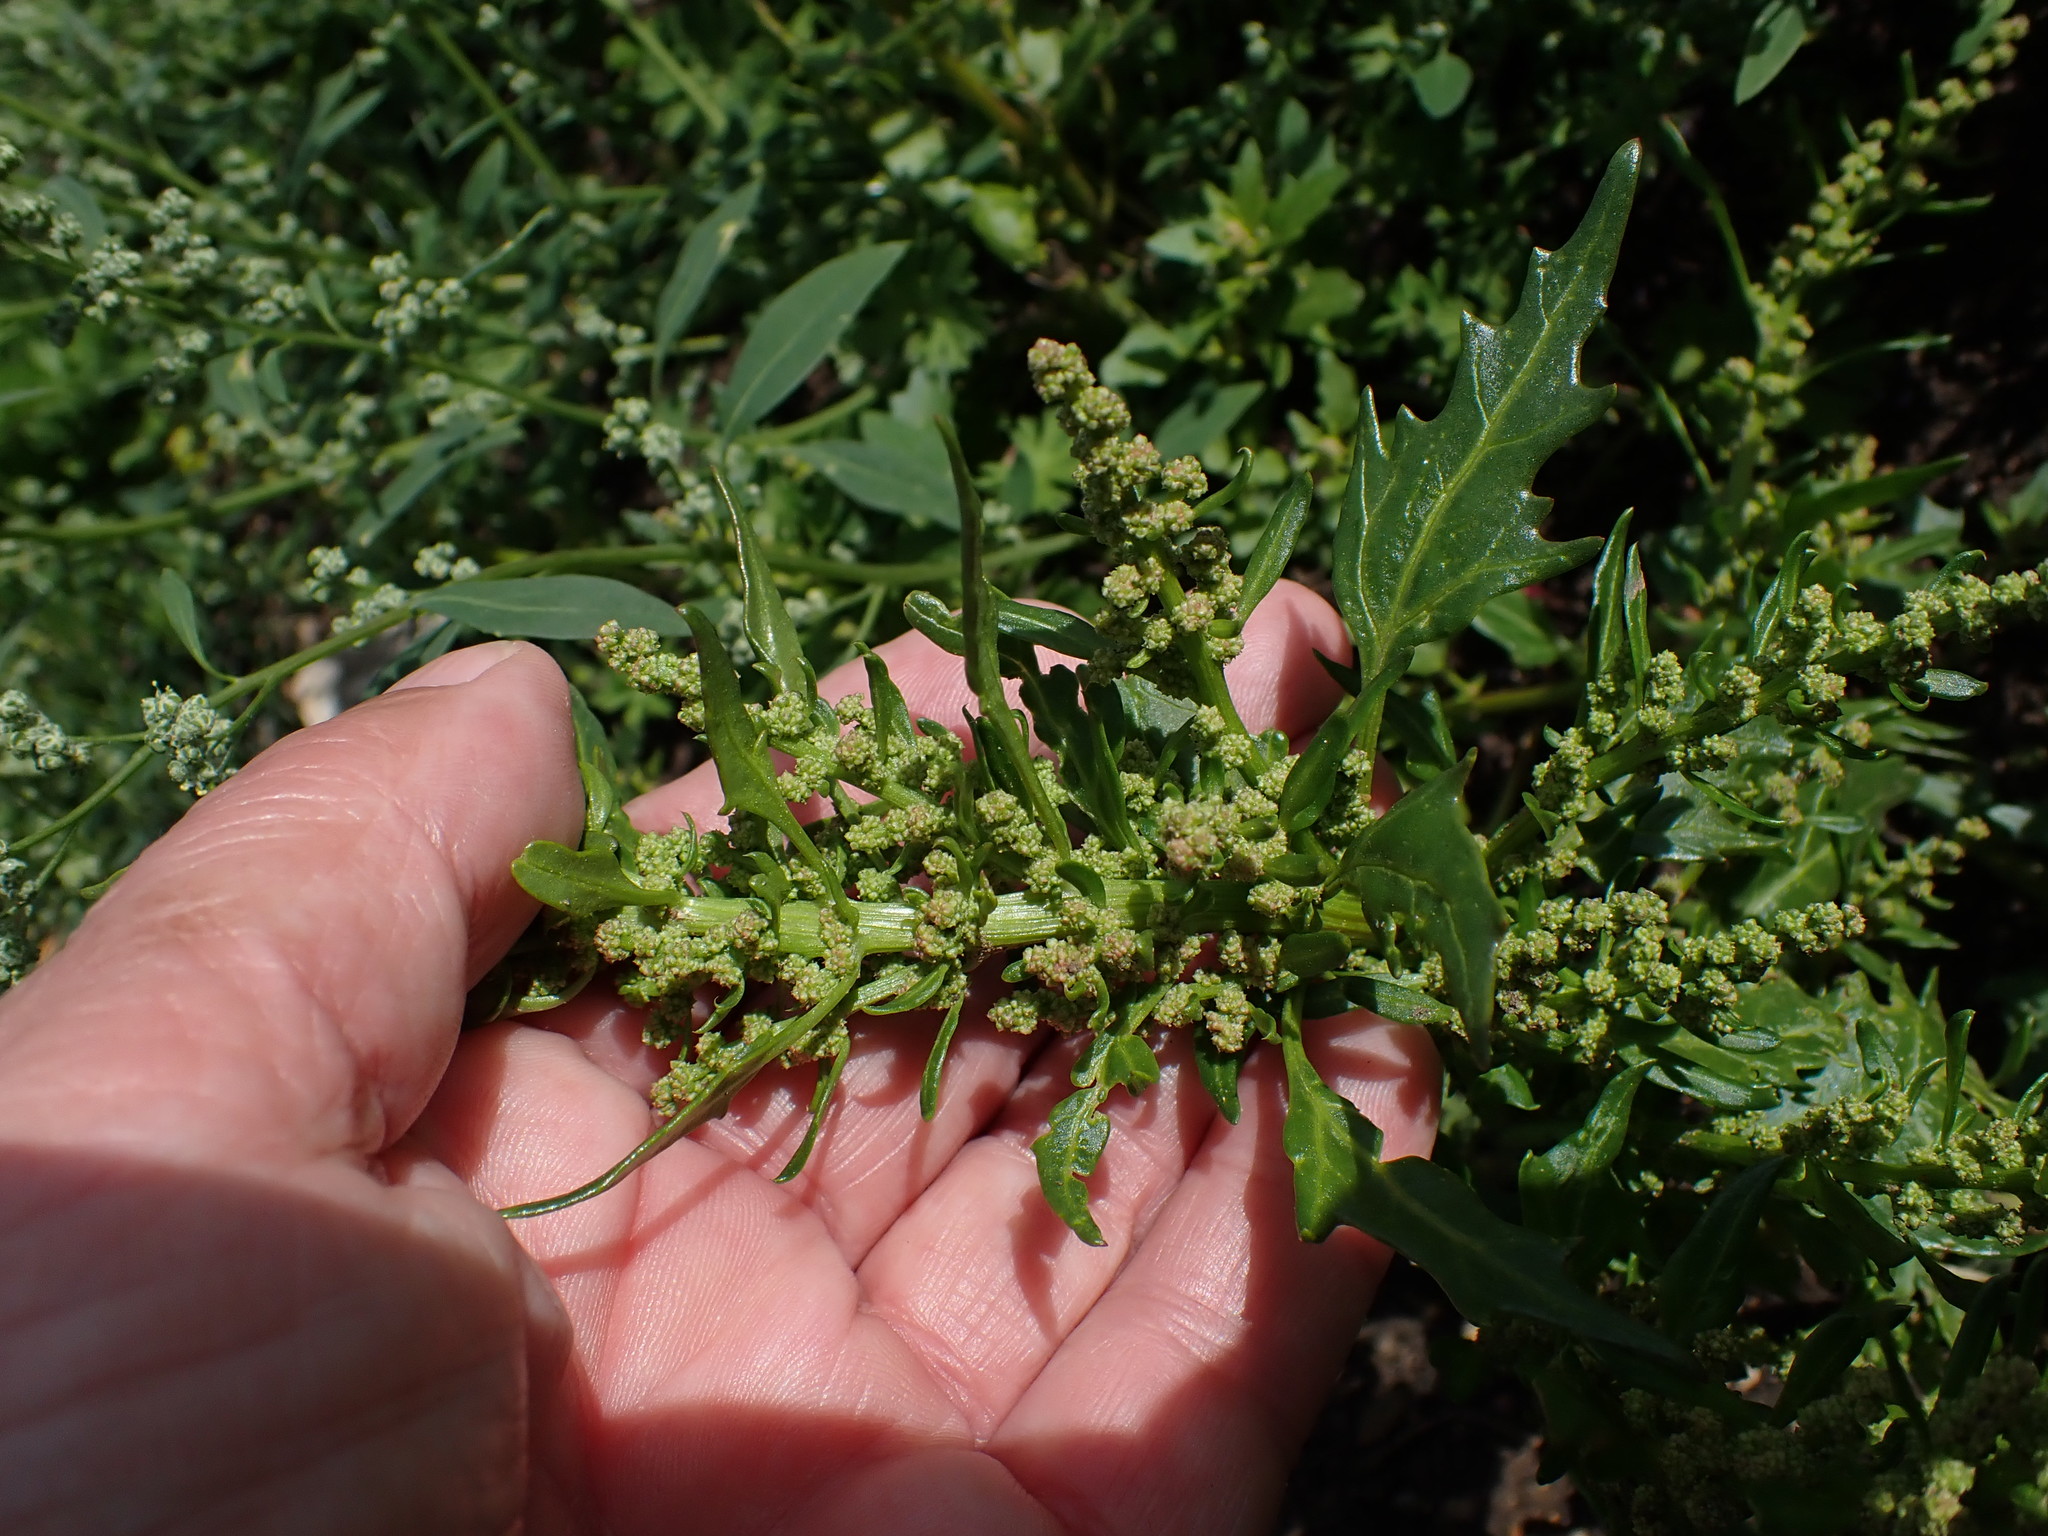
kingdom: Plantae
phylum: Tracheophyta
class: Magnoliopsida
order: Caryophyllales
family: Amaranthaceae
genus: Oxybasis
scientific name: Oxybasis rubra
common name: Red goosefoot
